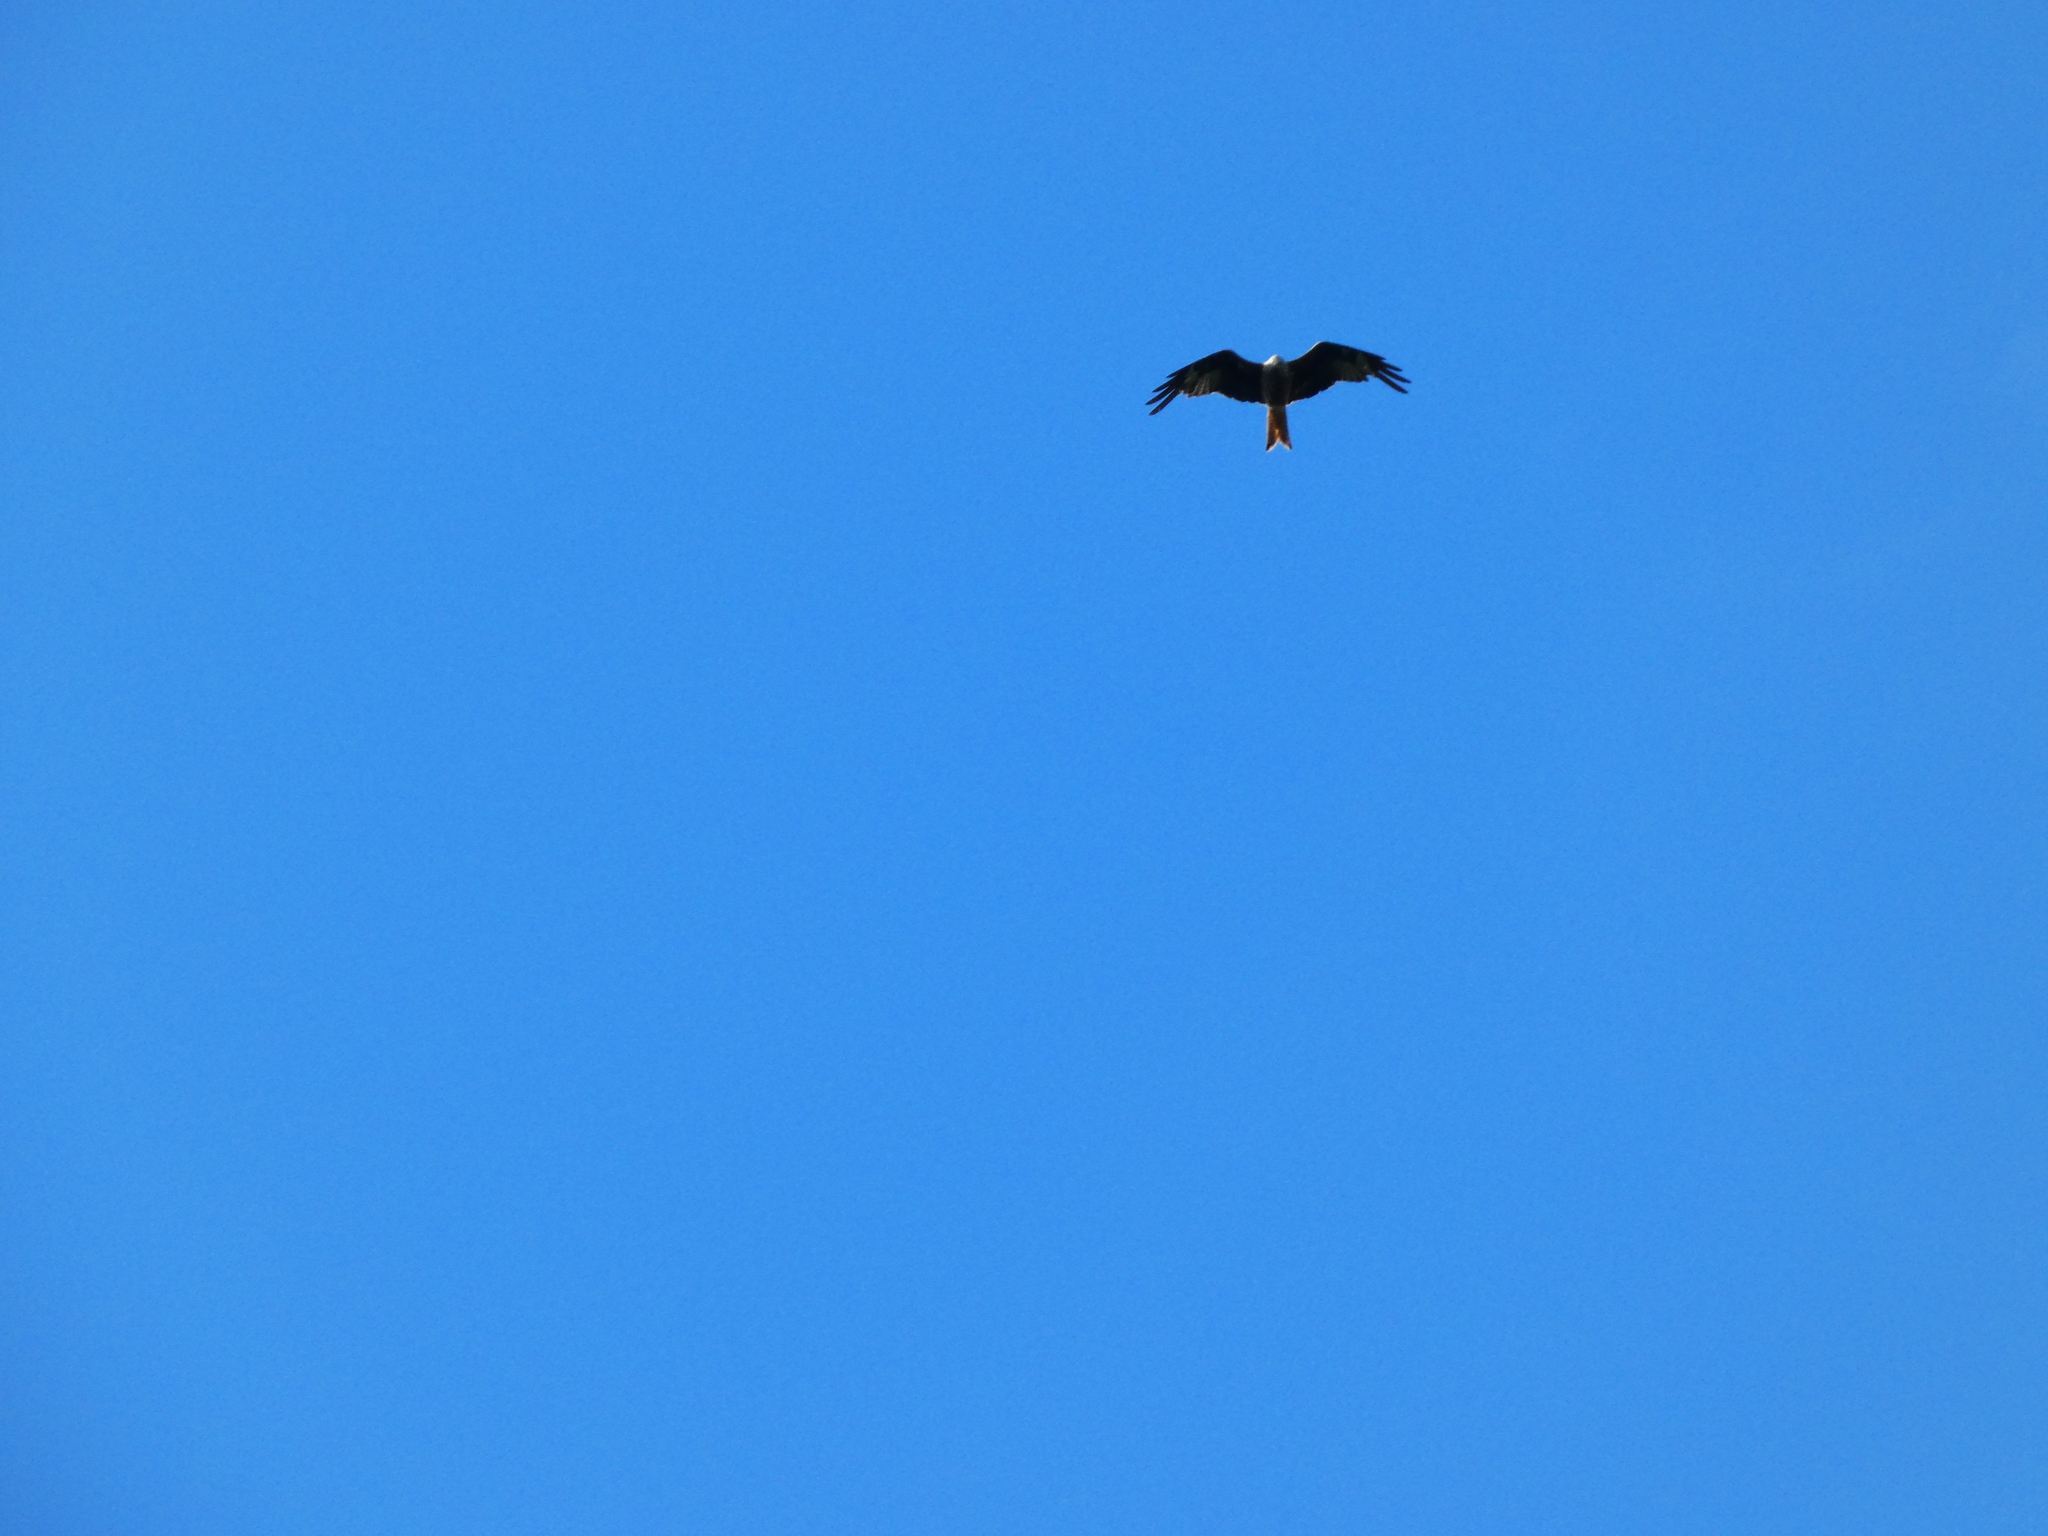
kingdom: Animalia
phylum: Chordata
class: Aves
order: Accipitriformes
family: Accipitridae
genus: Milvus
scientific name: Milvus milvus
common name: Red kite
